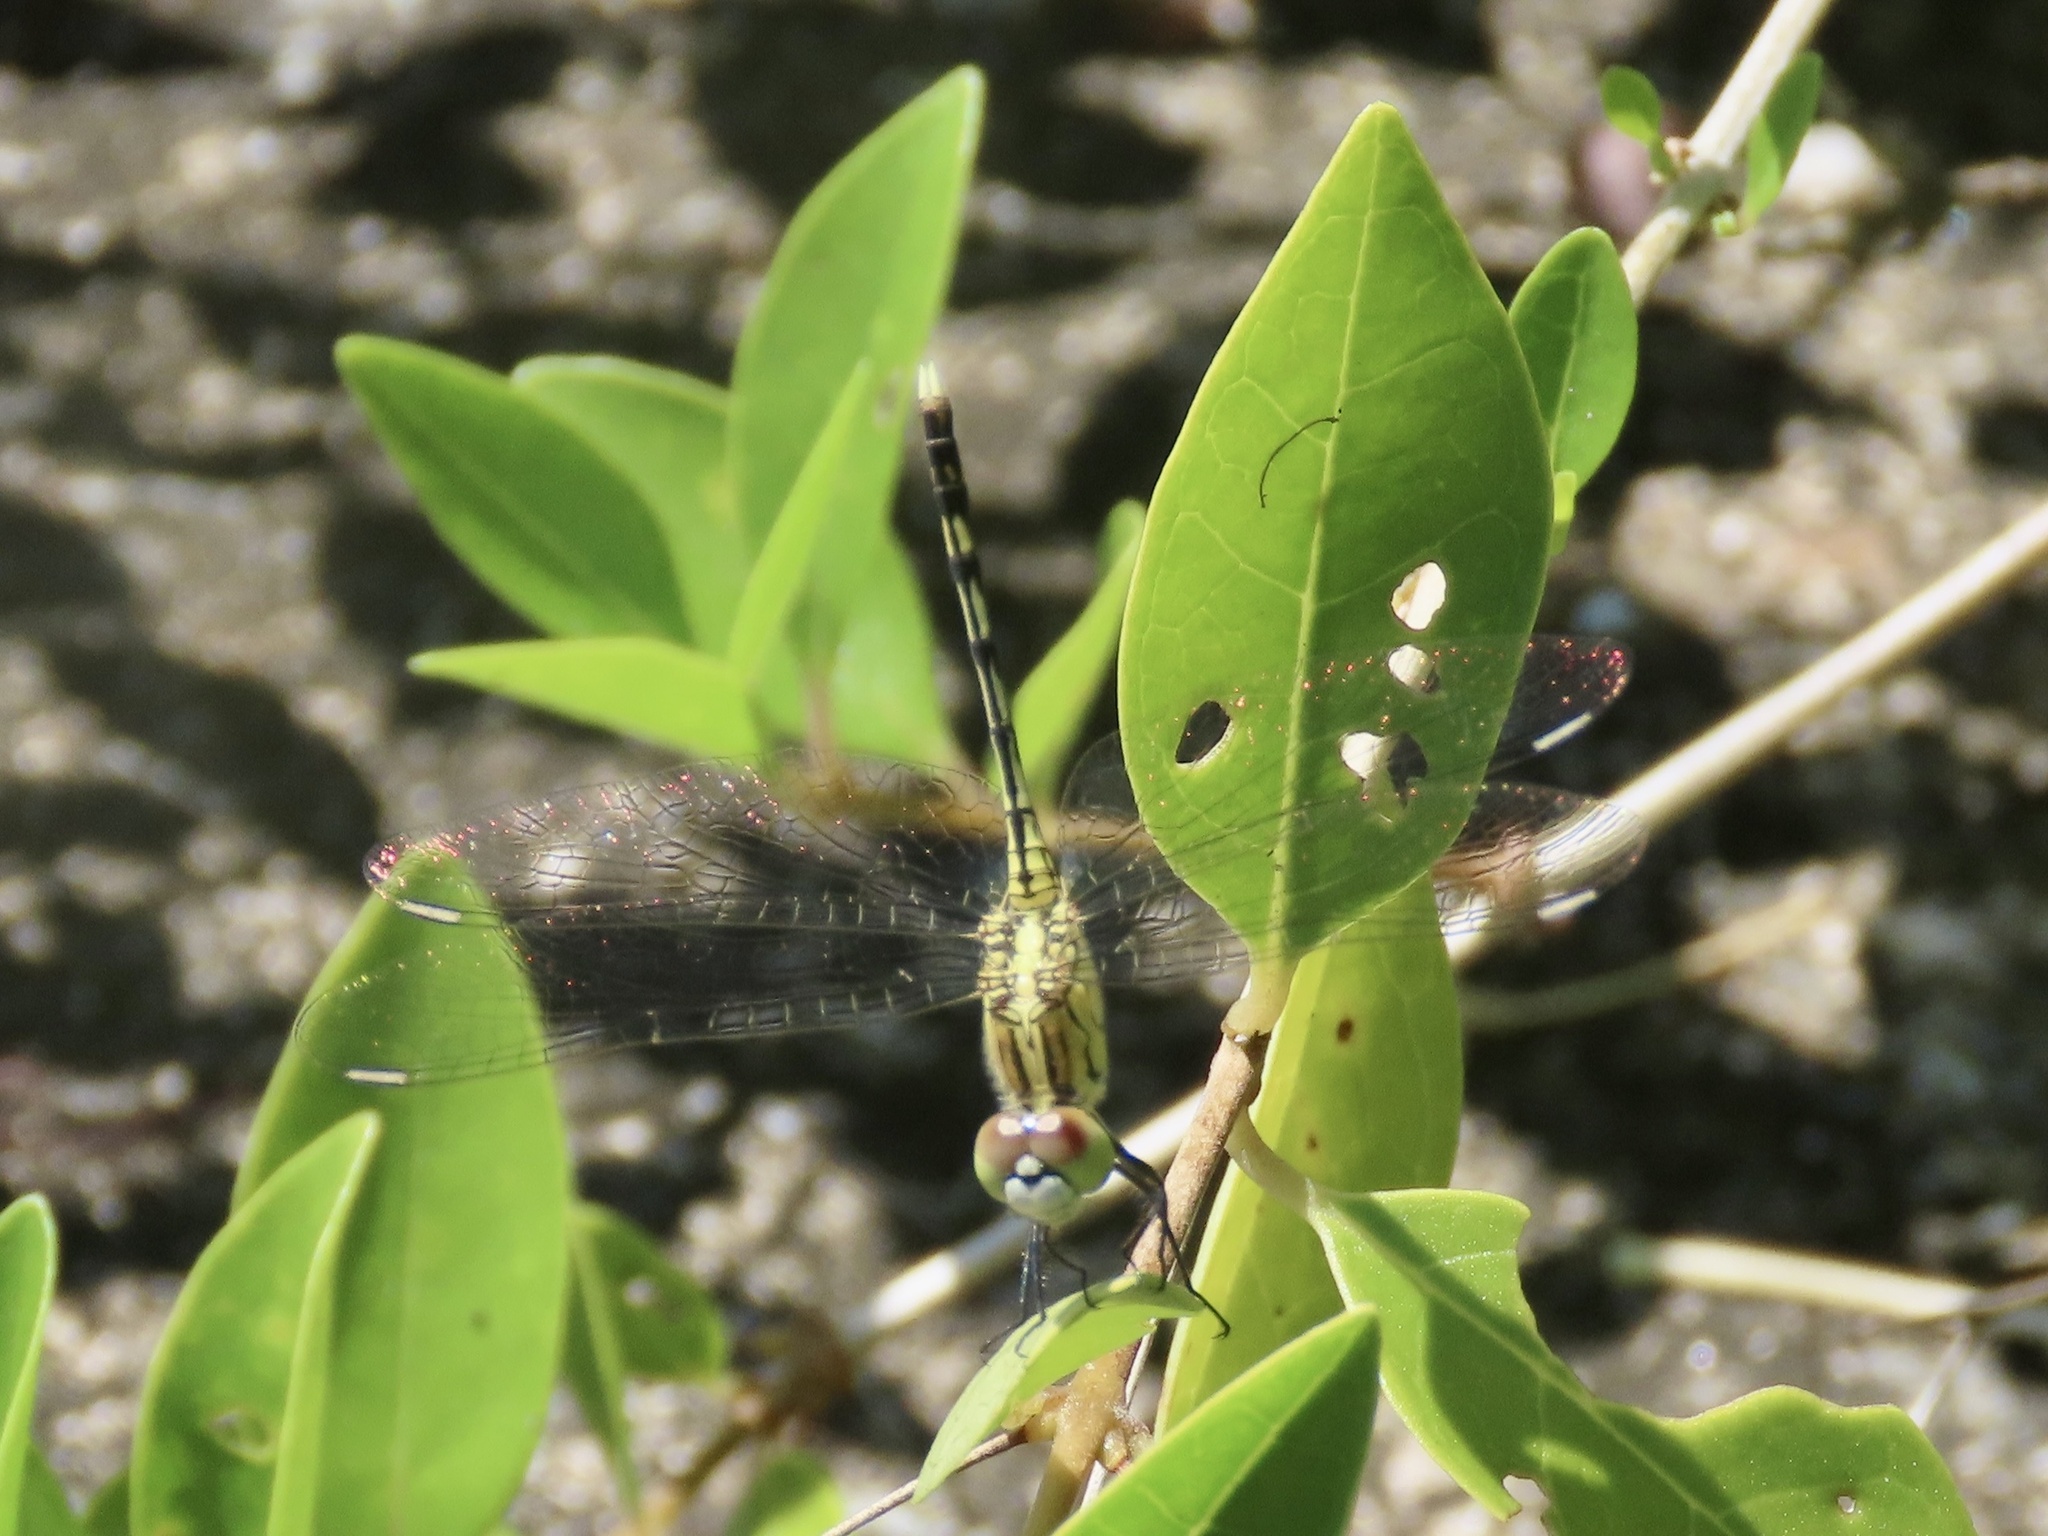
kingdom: Animalia
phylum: Arthropoda
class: Insecta
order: Odonata
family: Libellulidae
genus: Diplacodes
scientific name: Diplacodes trivialis
